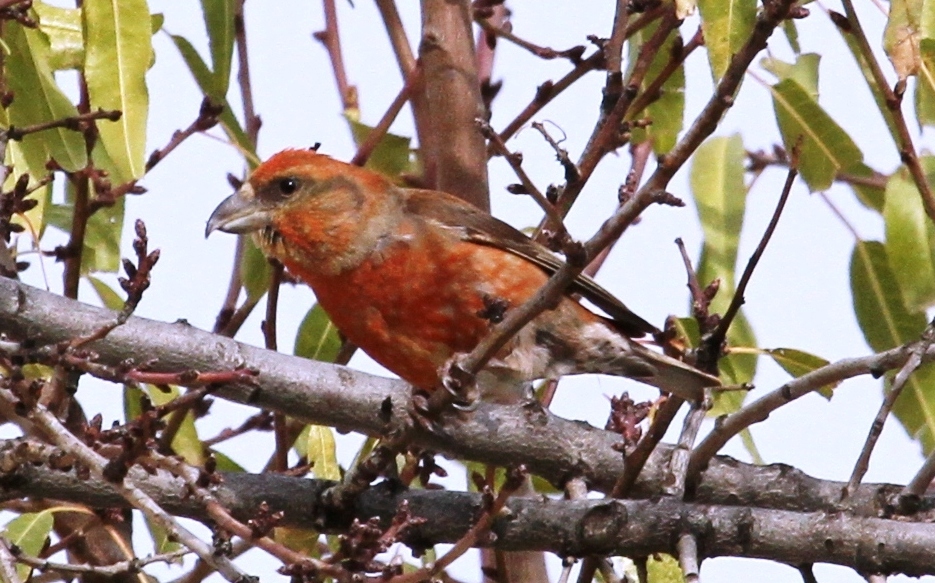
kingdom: Animalia
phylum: Chordata
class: Aves
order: Passeriformes
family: Fringillidae
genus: Loxia
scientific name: Loxia curvirostra
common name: Red crossbill
